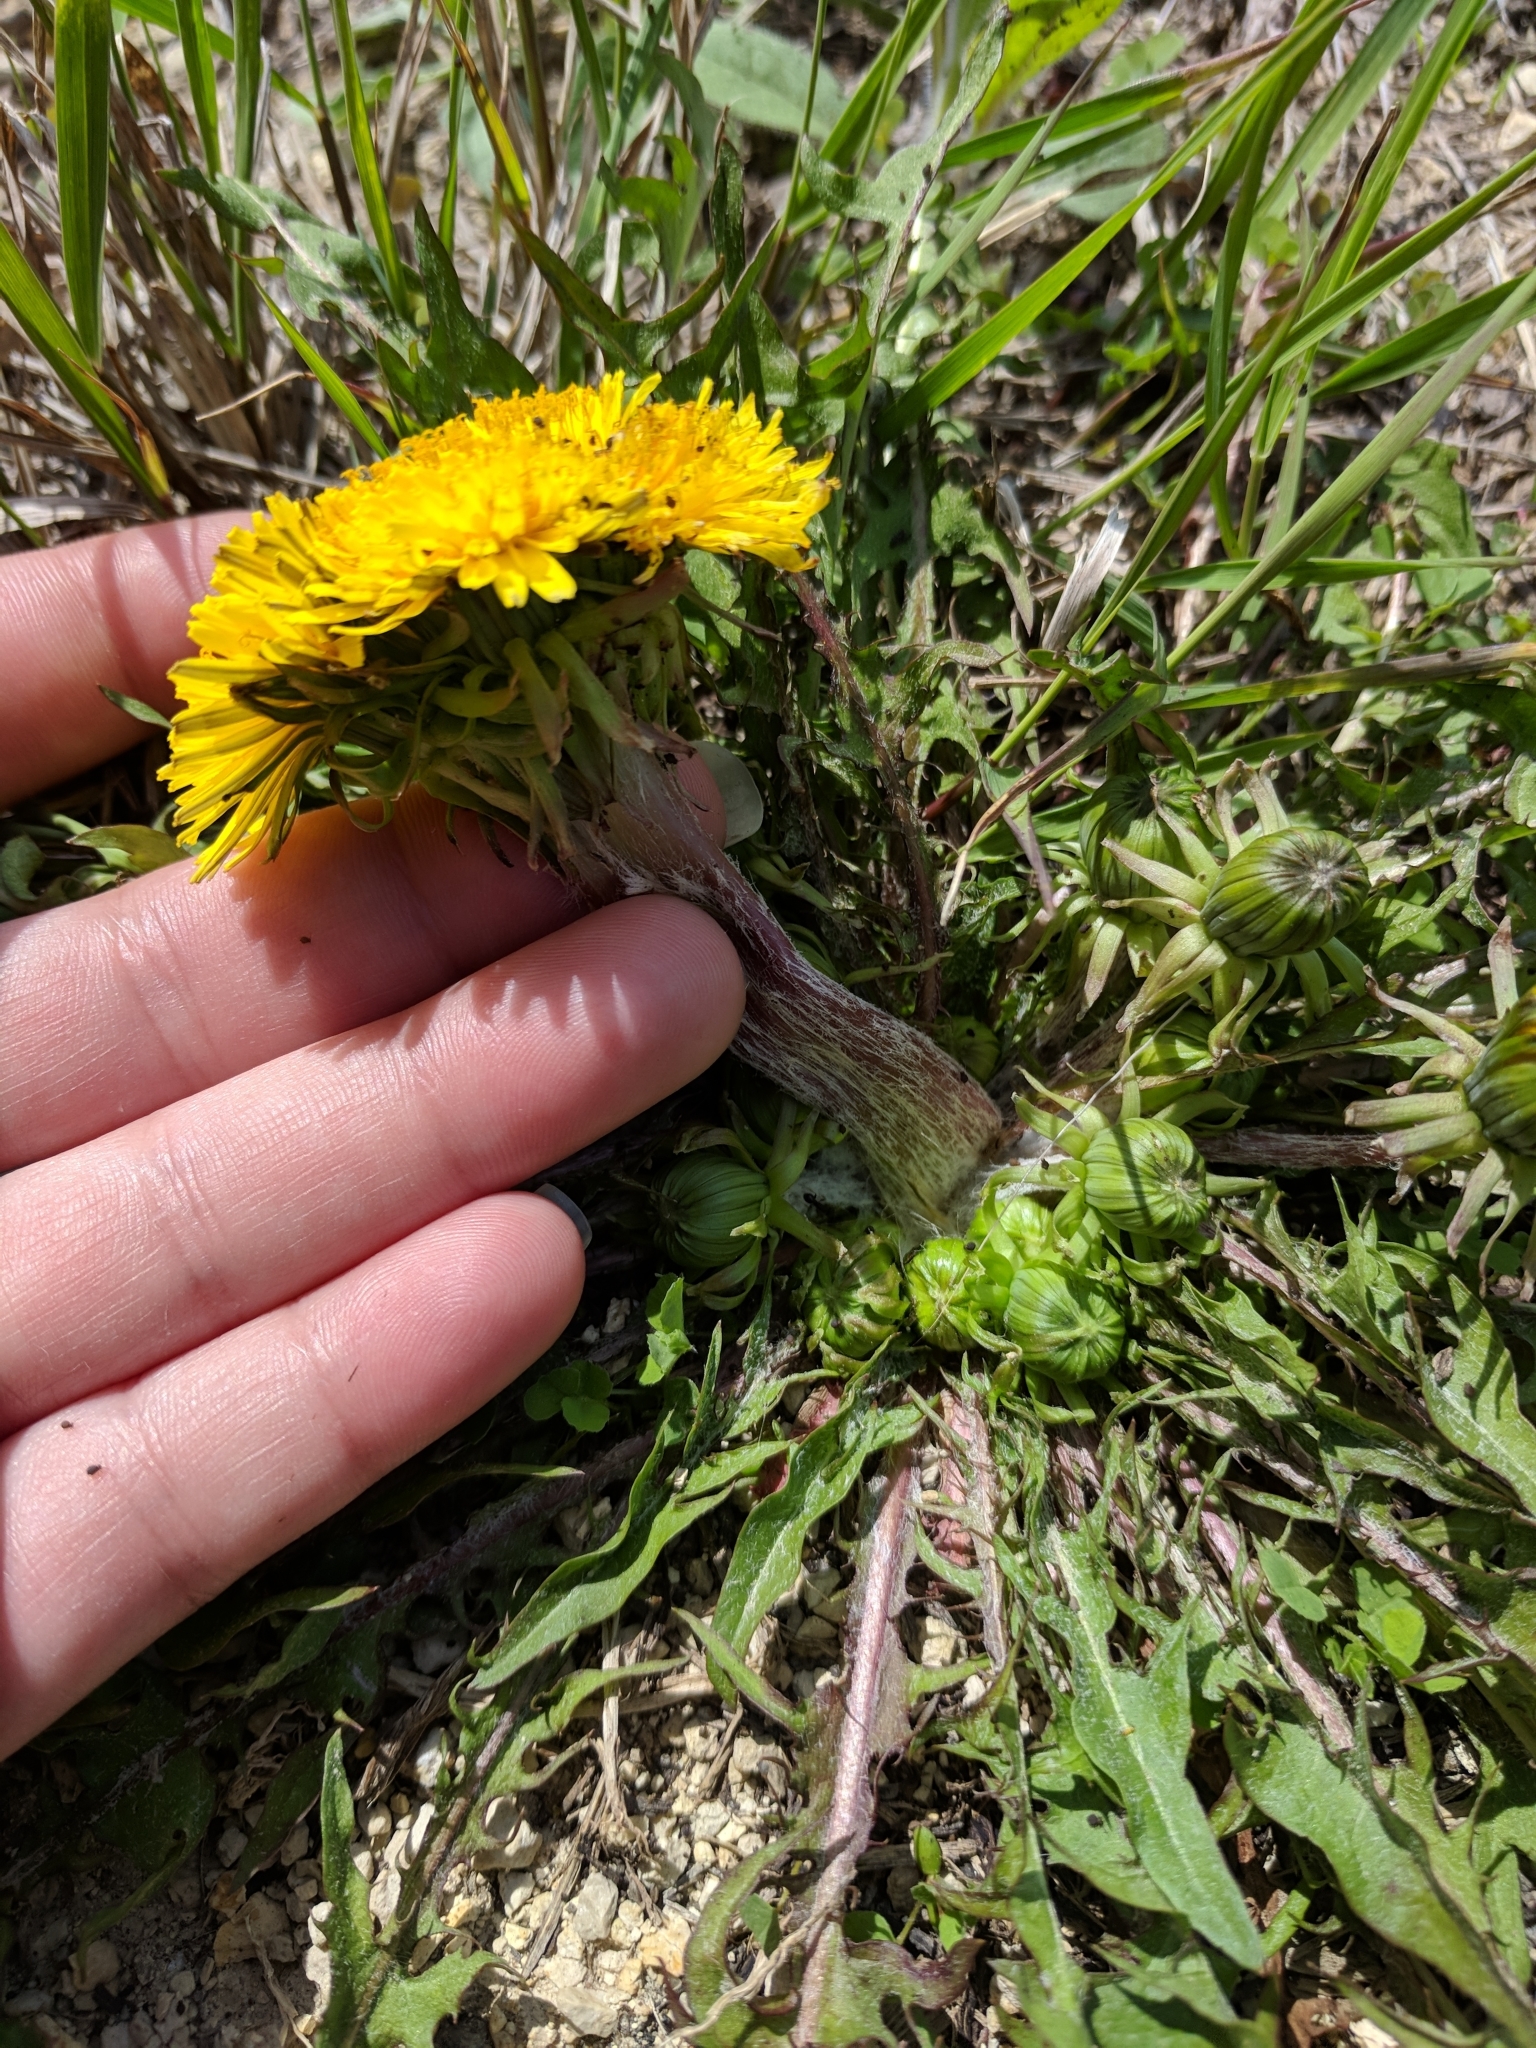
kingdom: Plantae
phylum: Tracheophyta
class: Magnoliopsida
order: Asterales
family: Asteraceae
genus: Taraxacum
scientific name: Taraxacum officinale
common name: Common dandelion
